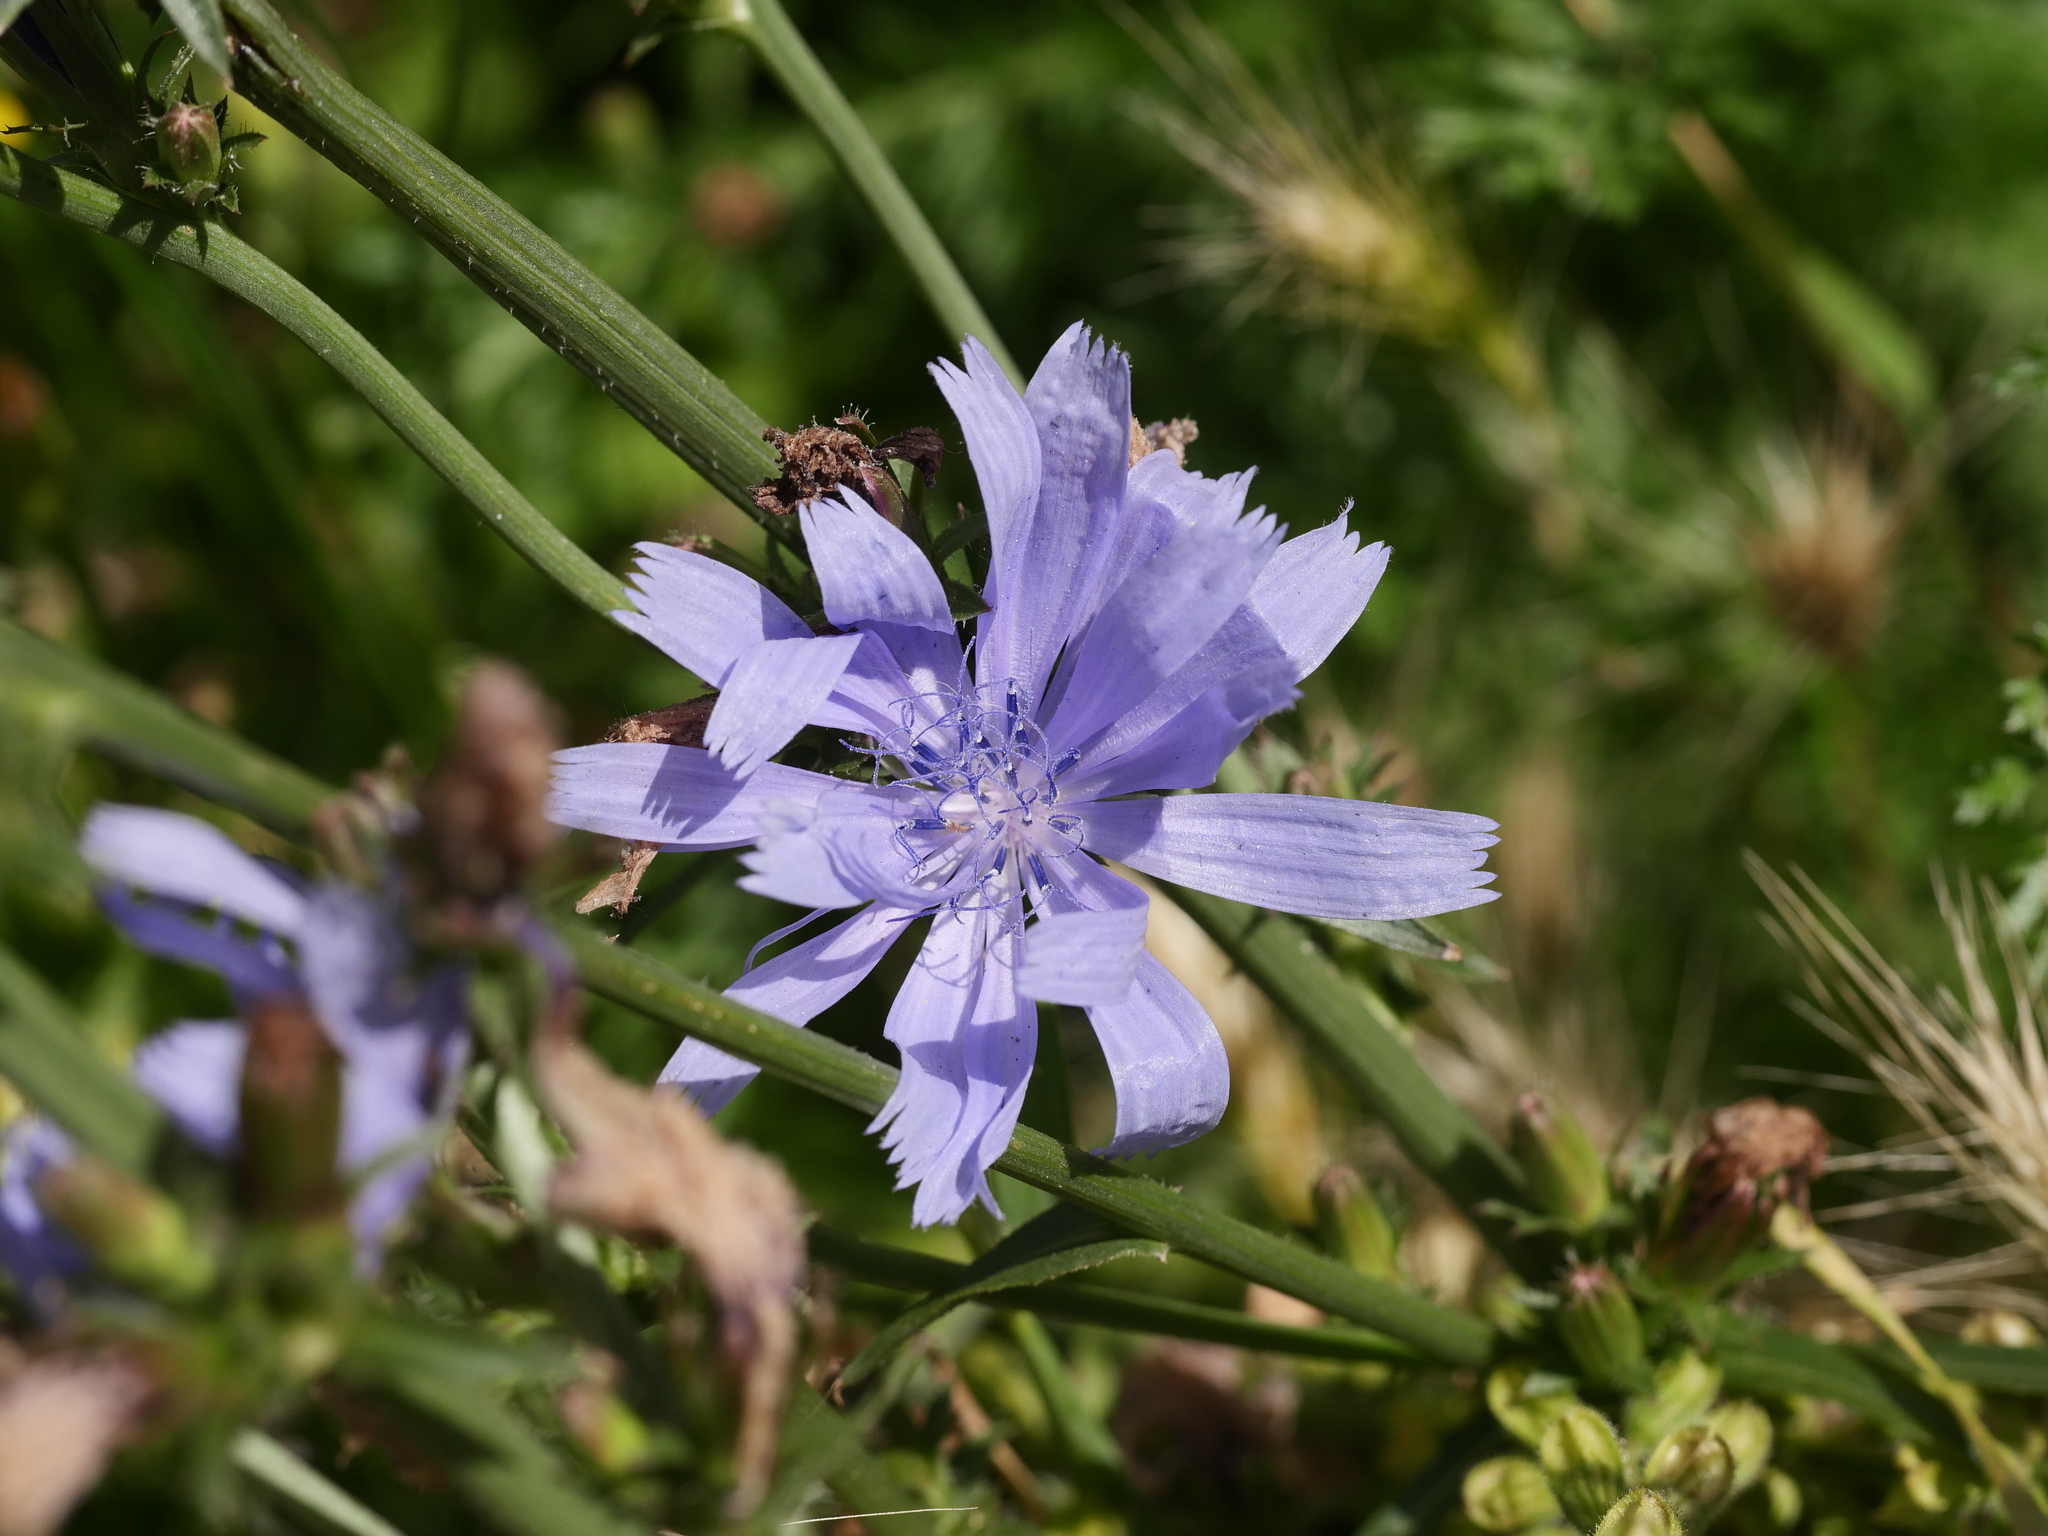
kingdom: Plantae
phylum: Tracheophyta
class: Magnoliopsida
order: Asterales
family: Asteraceae
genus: Cichorium
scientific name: Cichorium intybus
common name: Chicory
